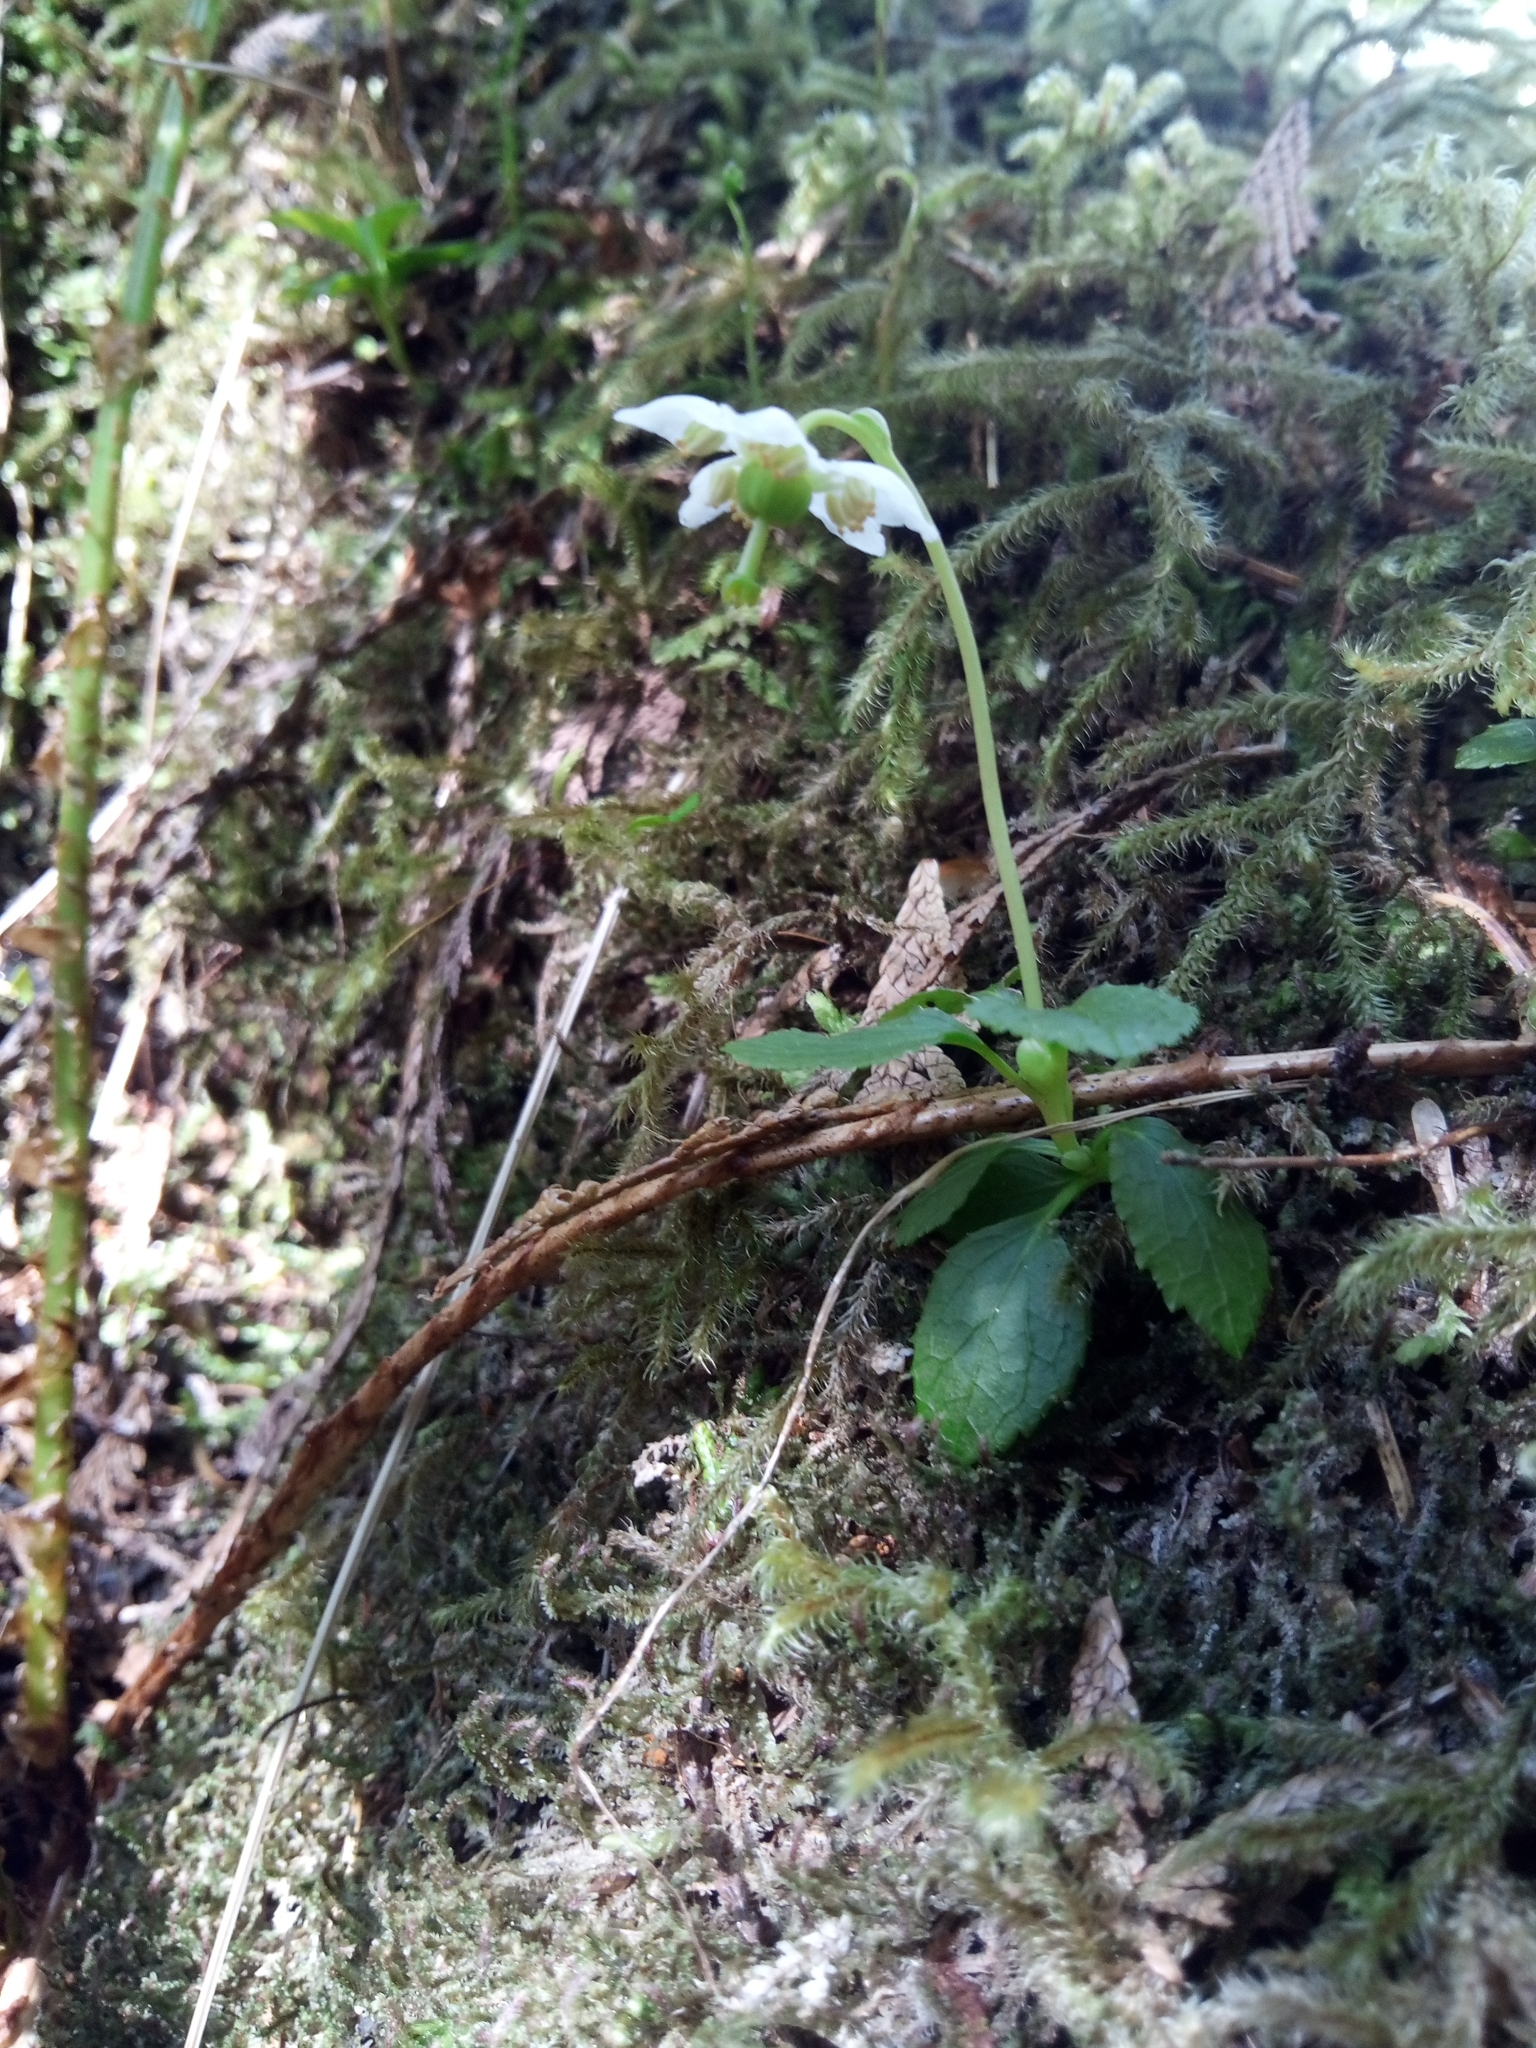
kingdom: Plantae
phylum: Tracheophyta
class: Magnoliopsida
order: Ericales
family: Ericaceae
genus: Moneses
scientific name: Moneses uniflora
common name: One-flowered wintergreen
